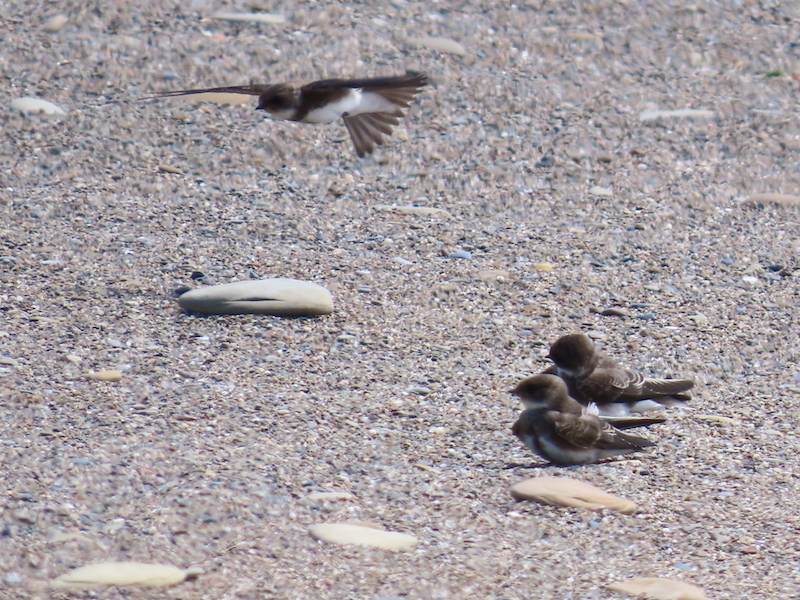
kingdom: Animalia
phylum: Chordata
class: Aves
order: Passeriformes
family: Hirundinidae
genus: Riparia
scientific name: Riparia riparia
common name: Sand martin
